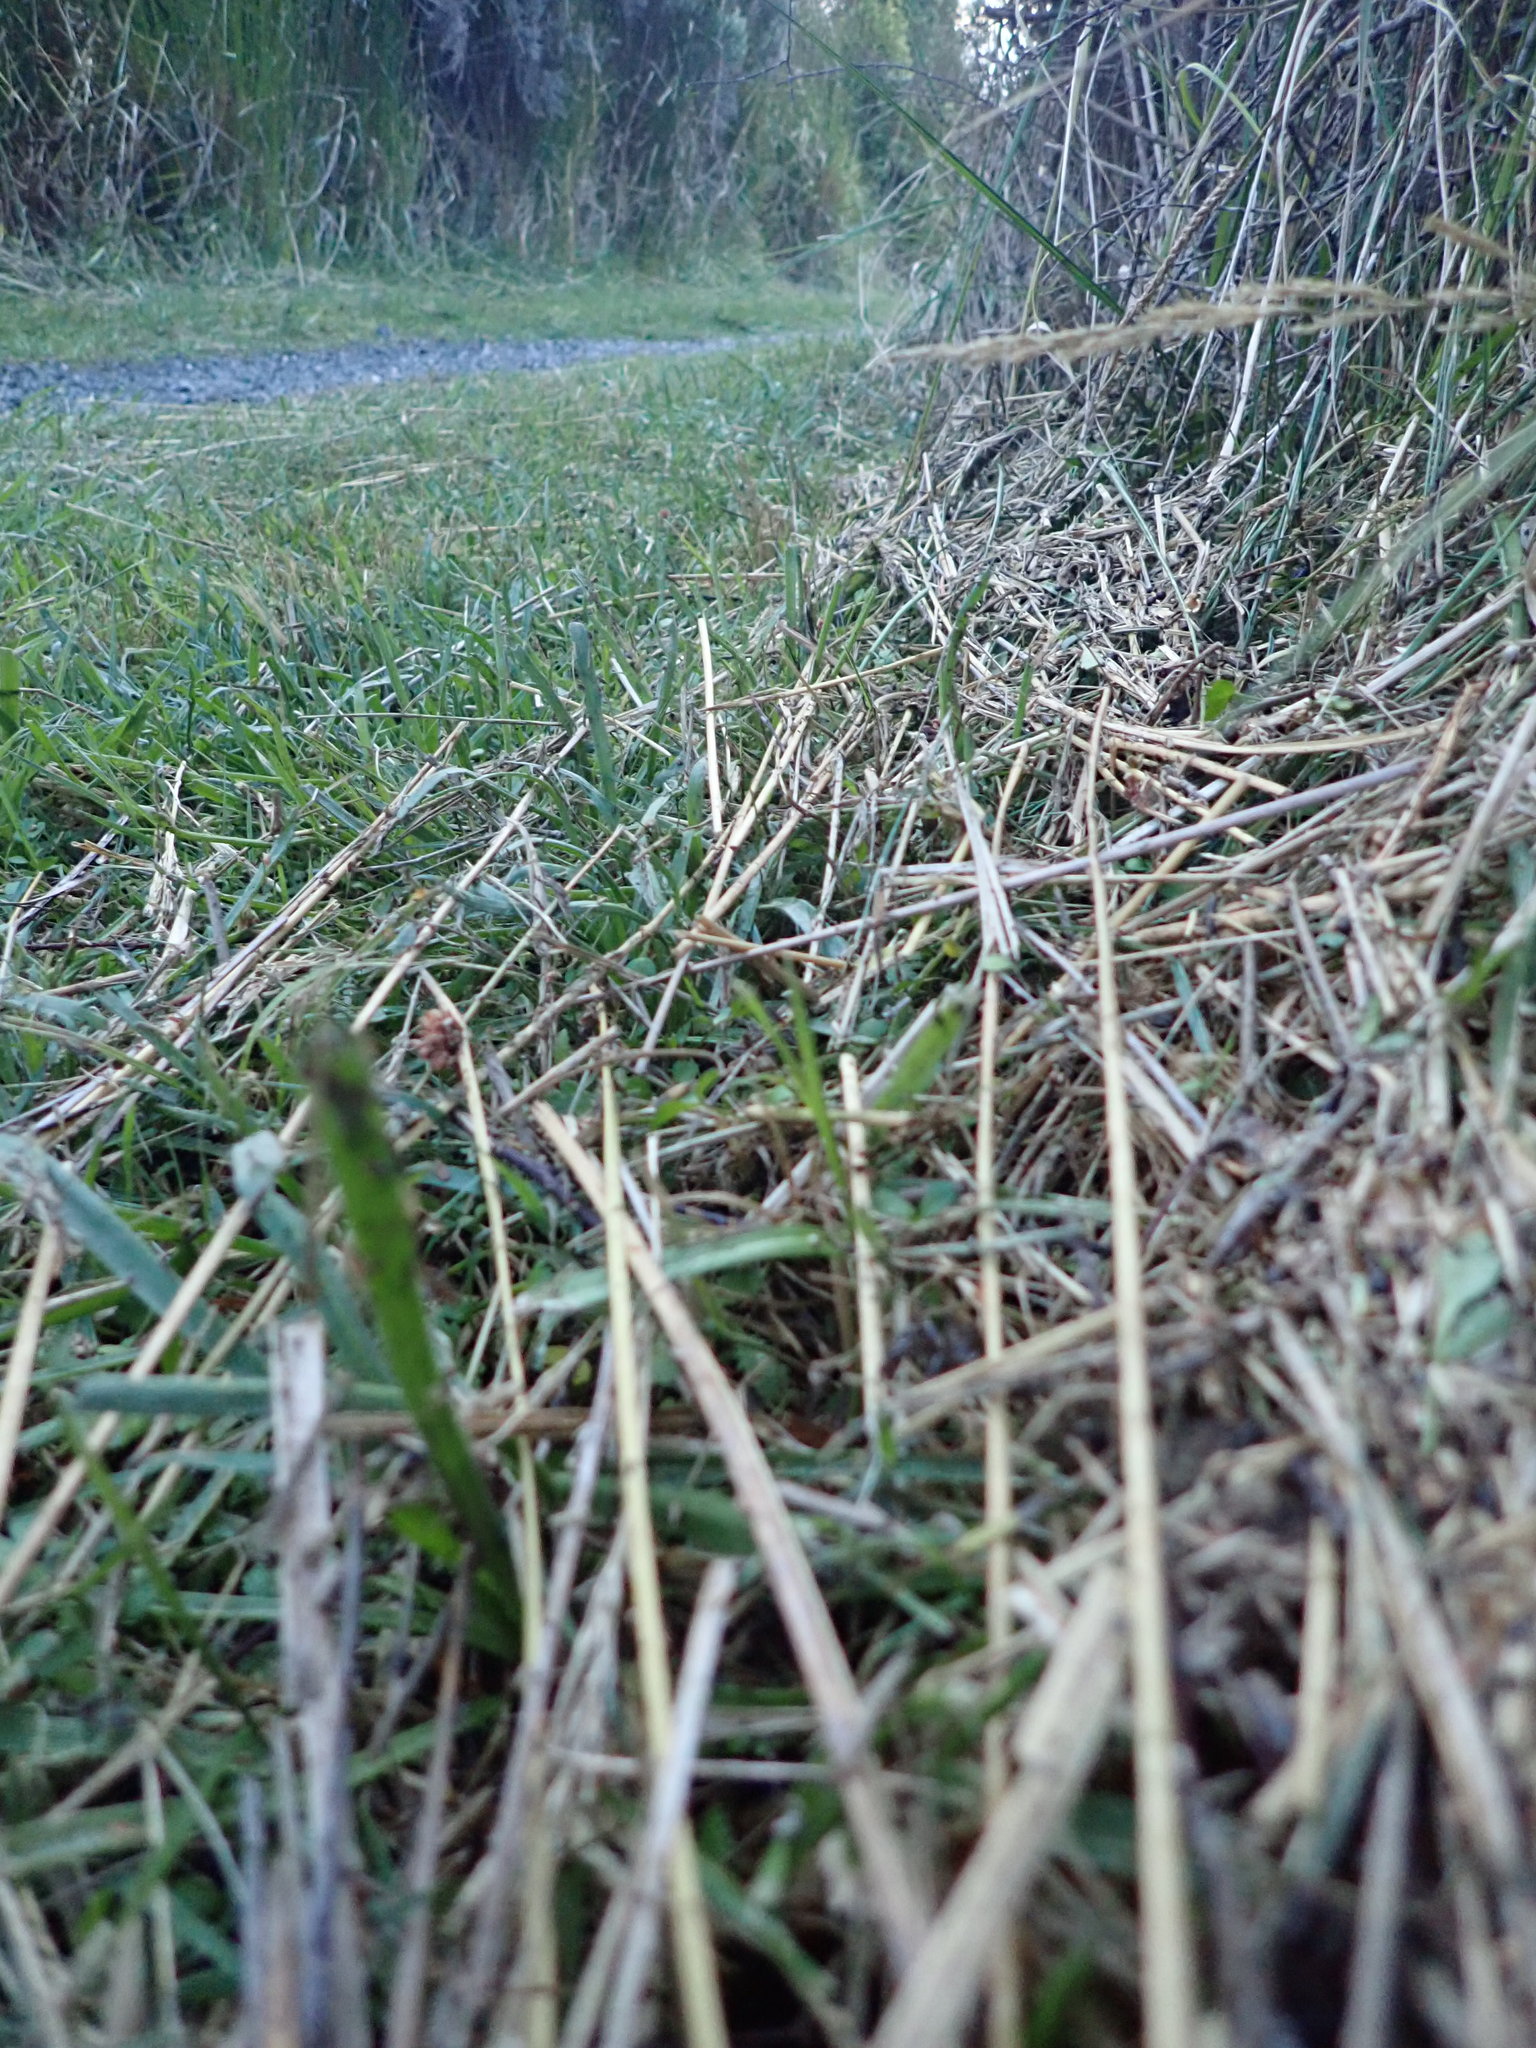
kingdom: Animalia
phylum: Arthropoda
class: Malacostraca
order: Decapoda
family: Varunidae
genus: Austrohelice
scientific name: Austrohelice crassa
